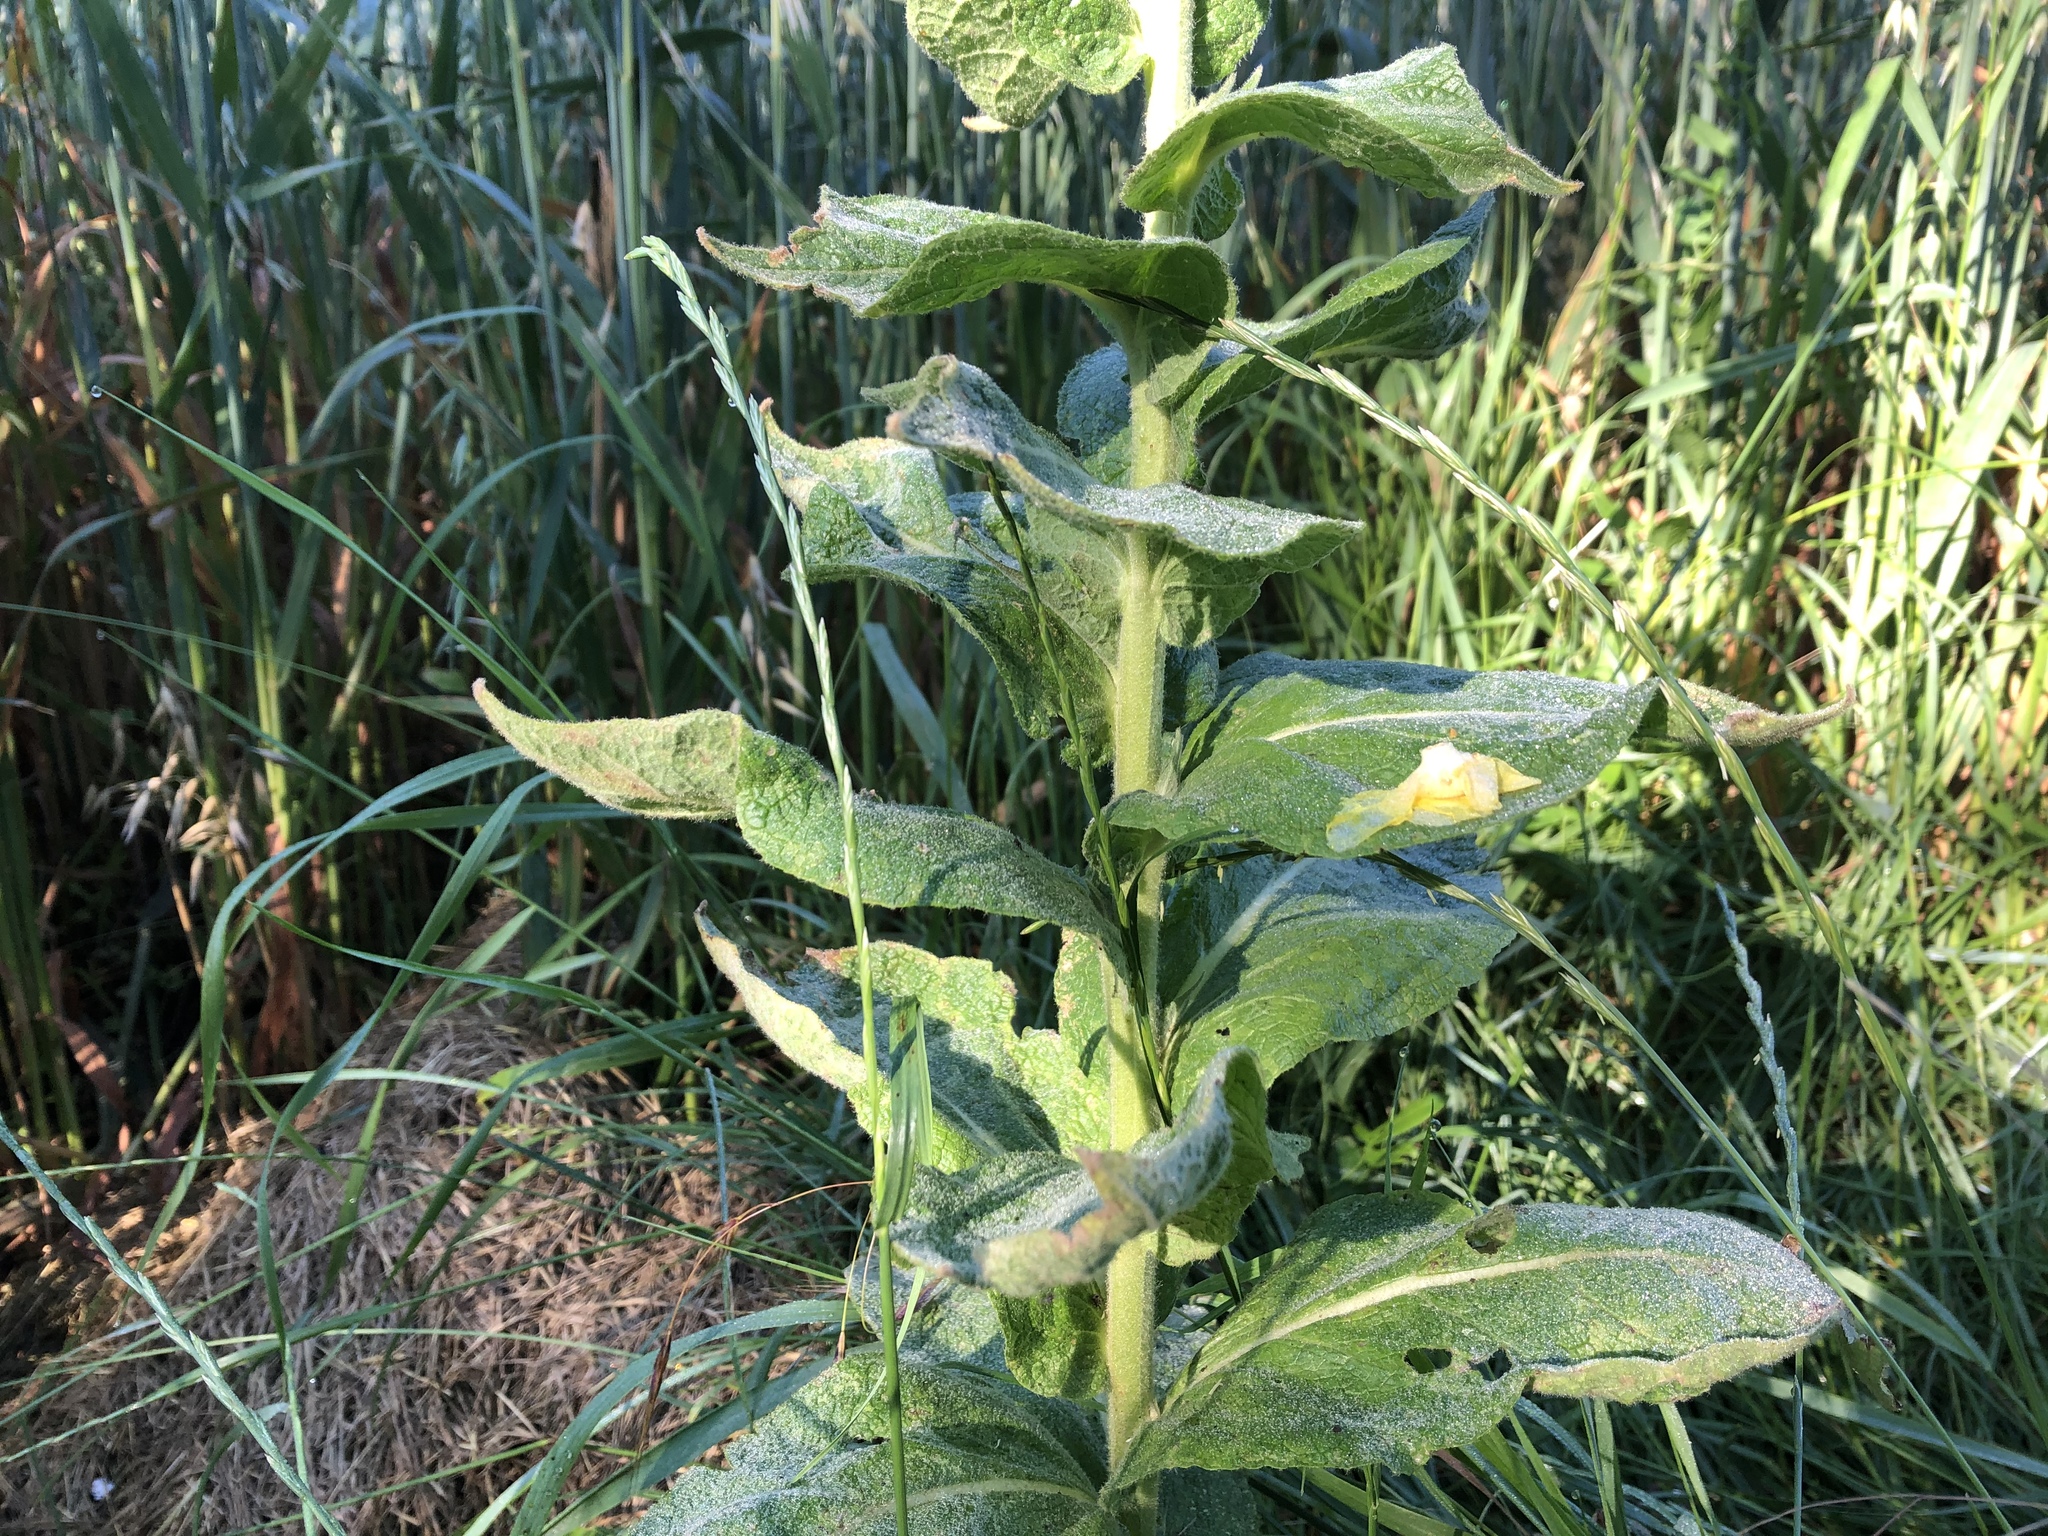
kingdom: Plantae
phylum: Tracheophyta
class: Magnoliopsida
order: Lamiales
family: Scrophulariaceae
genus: Verbascum
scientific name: Verbascum phlomoides
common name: Orange mullein
